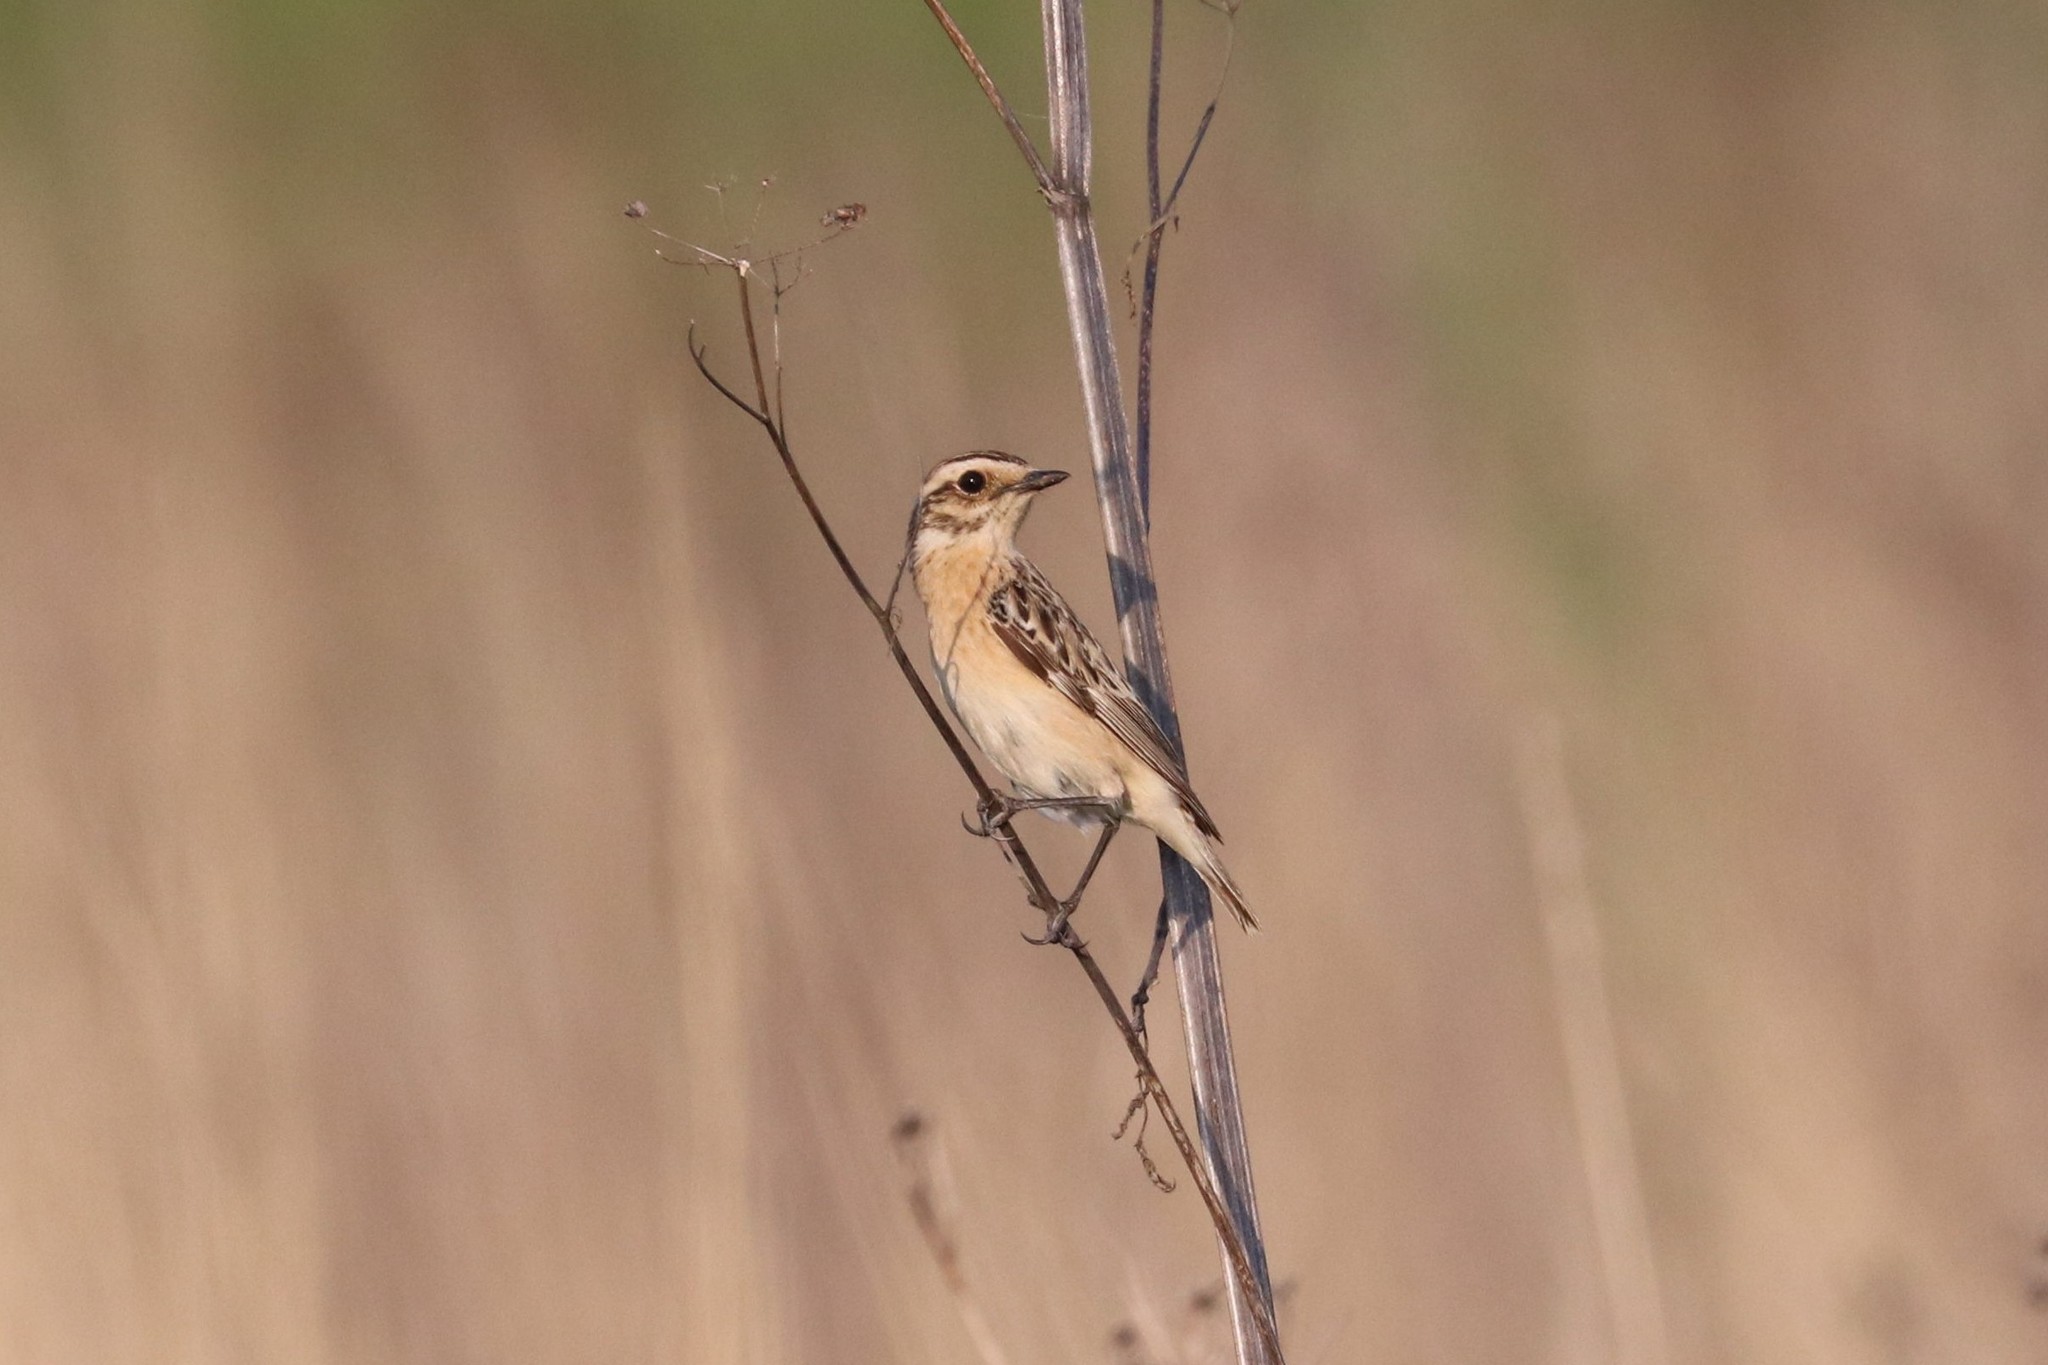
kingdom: Animalia
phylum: Chordata
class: Aves
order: Passeriformes
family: Muscicapidae
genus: Saxicola
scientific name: Saxicola rubetra
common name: Whinchat
